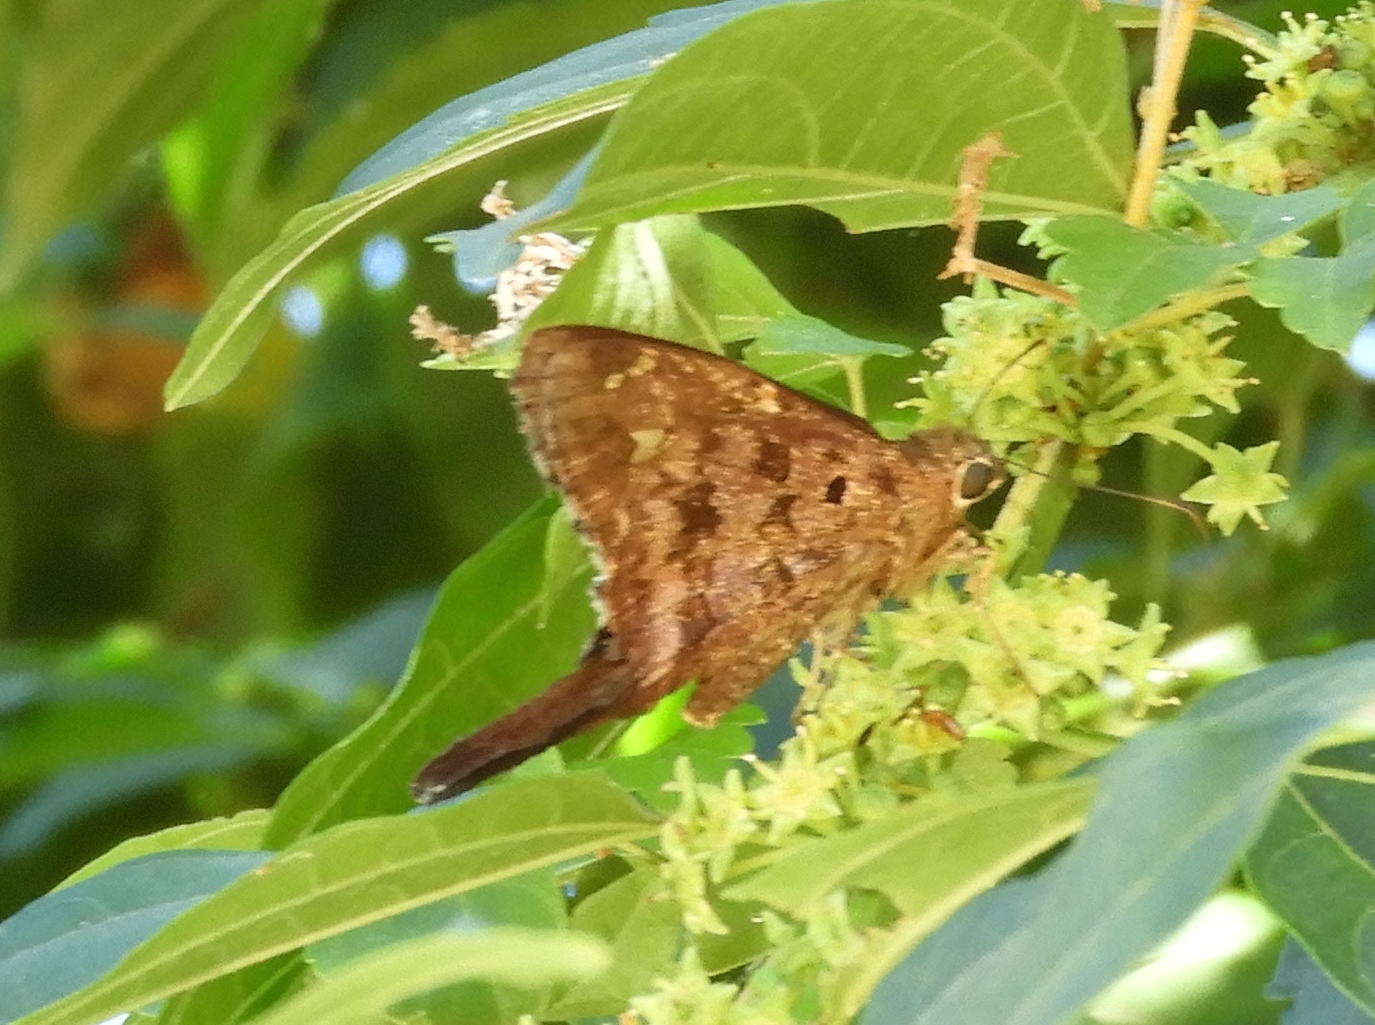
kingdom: Animalia
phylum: Arthropoda
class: Insecta
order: Lepidoptera
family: Hesperiidae
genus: Thorybes
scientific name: Thorybes
